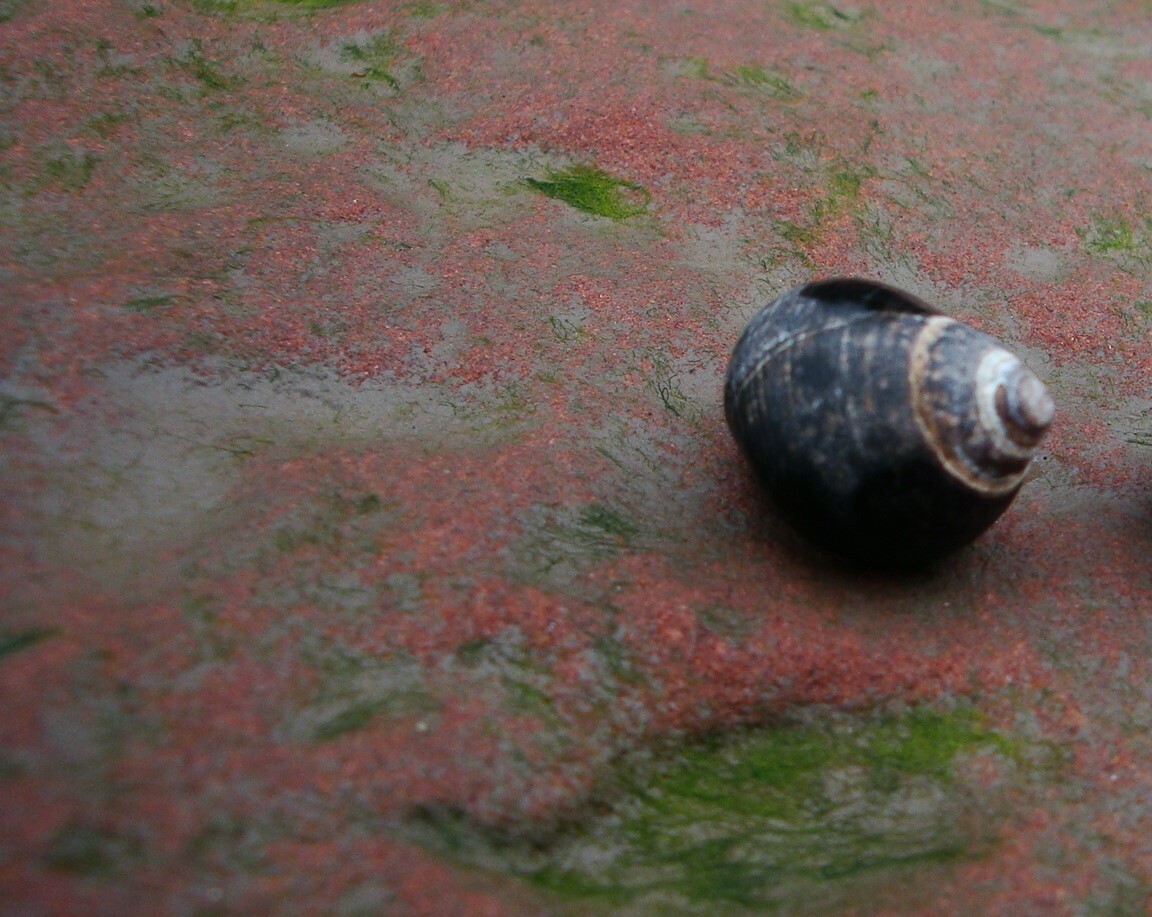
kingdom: Animalia
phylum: Mollusca
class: Gastropoda
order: Littorinimorpha
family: Littorinidae
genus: Littorina
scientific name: Littorina littorea
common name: Common periwinkle
